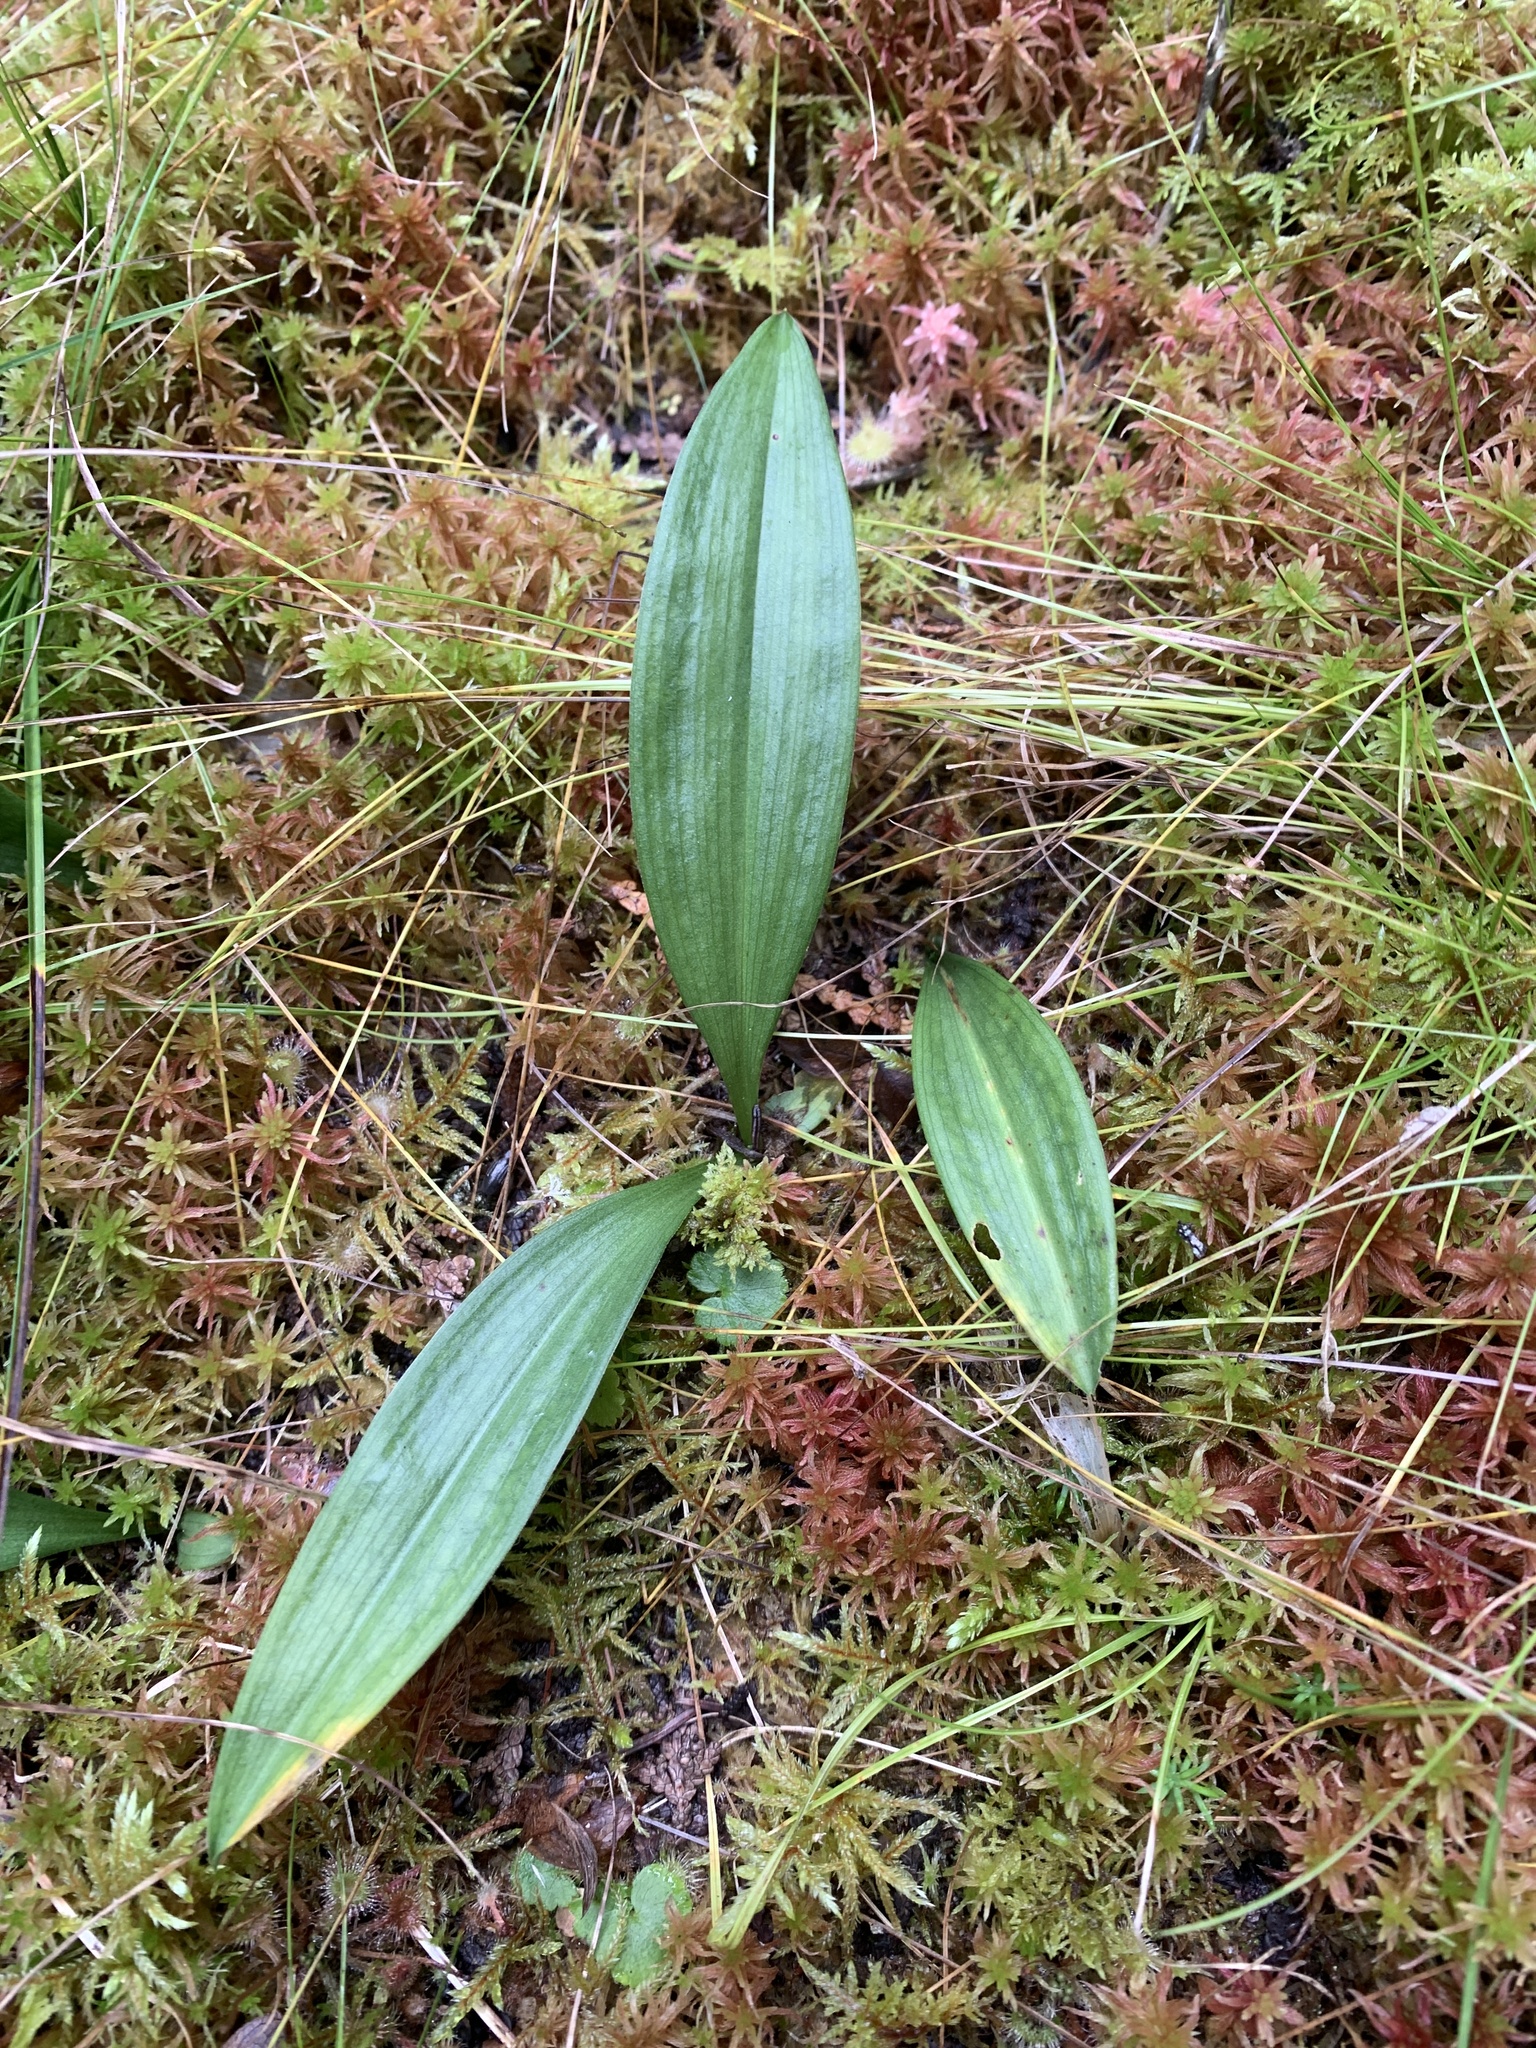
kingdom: Plantae
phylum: Tracheophyta
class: Liliopsida
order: Asparagales
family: Asparagaceae
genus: Maianthemum
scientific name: Maianthemum trifolium
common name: Swamp false solomon's seal
